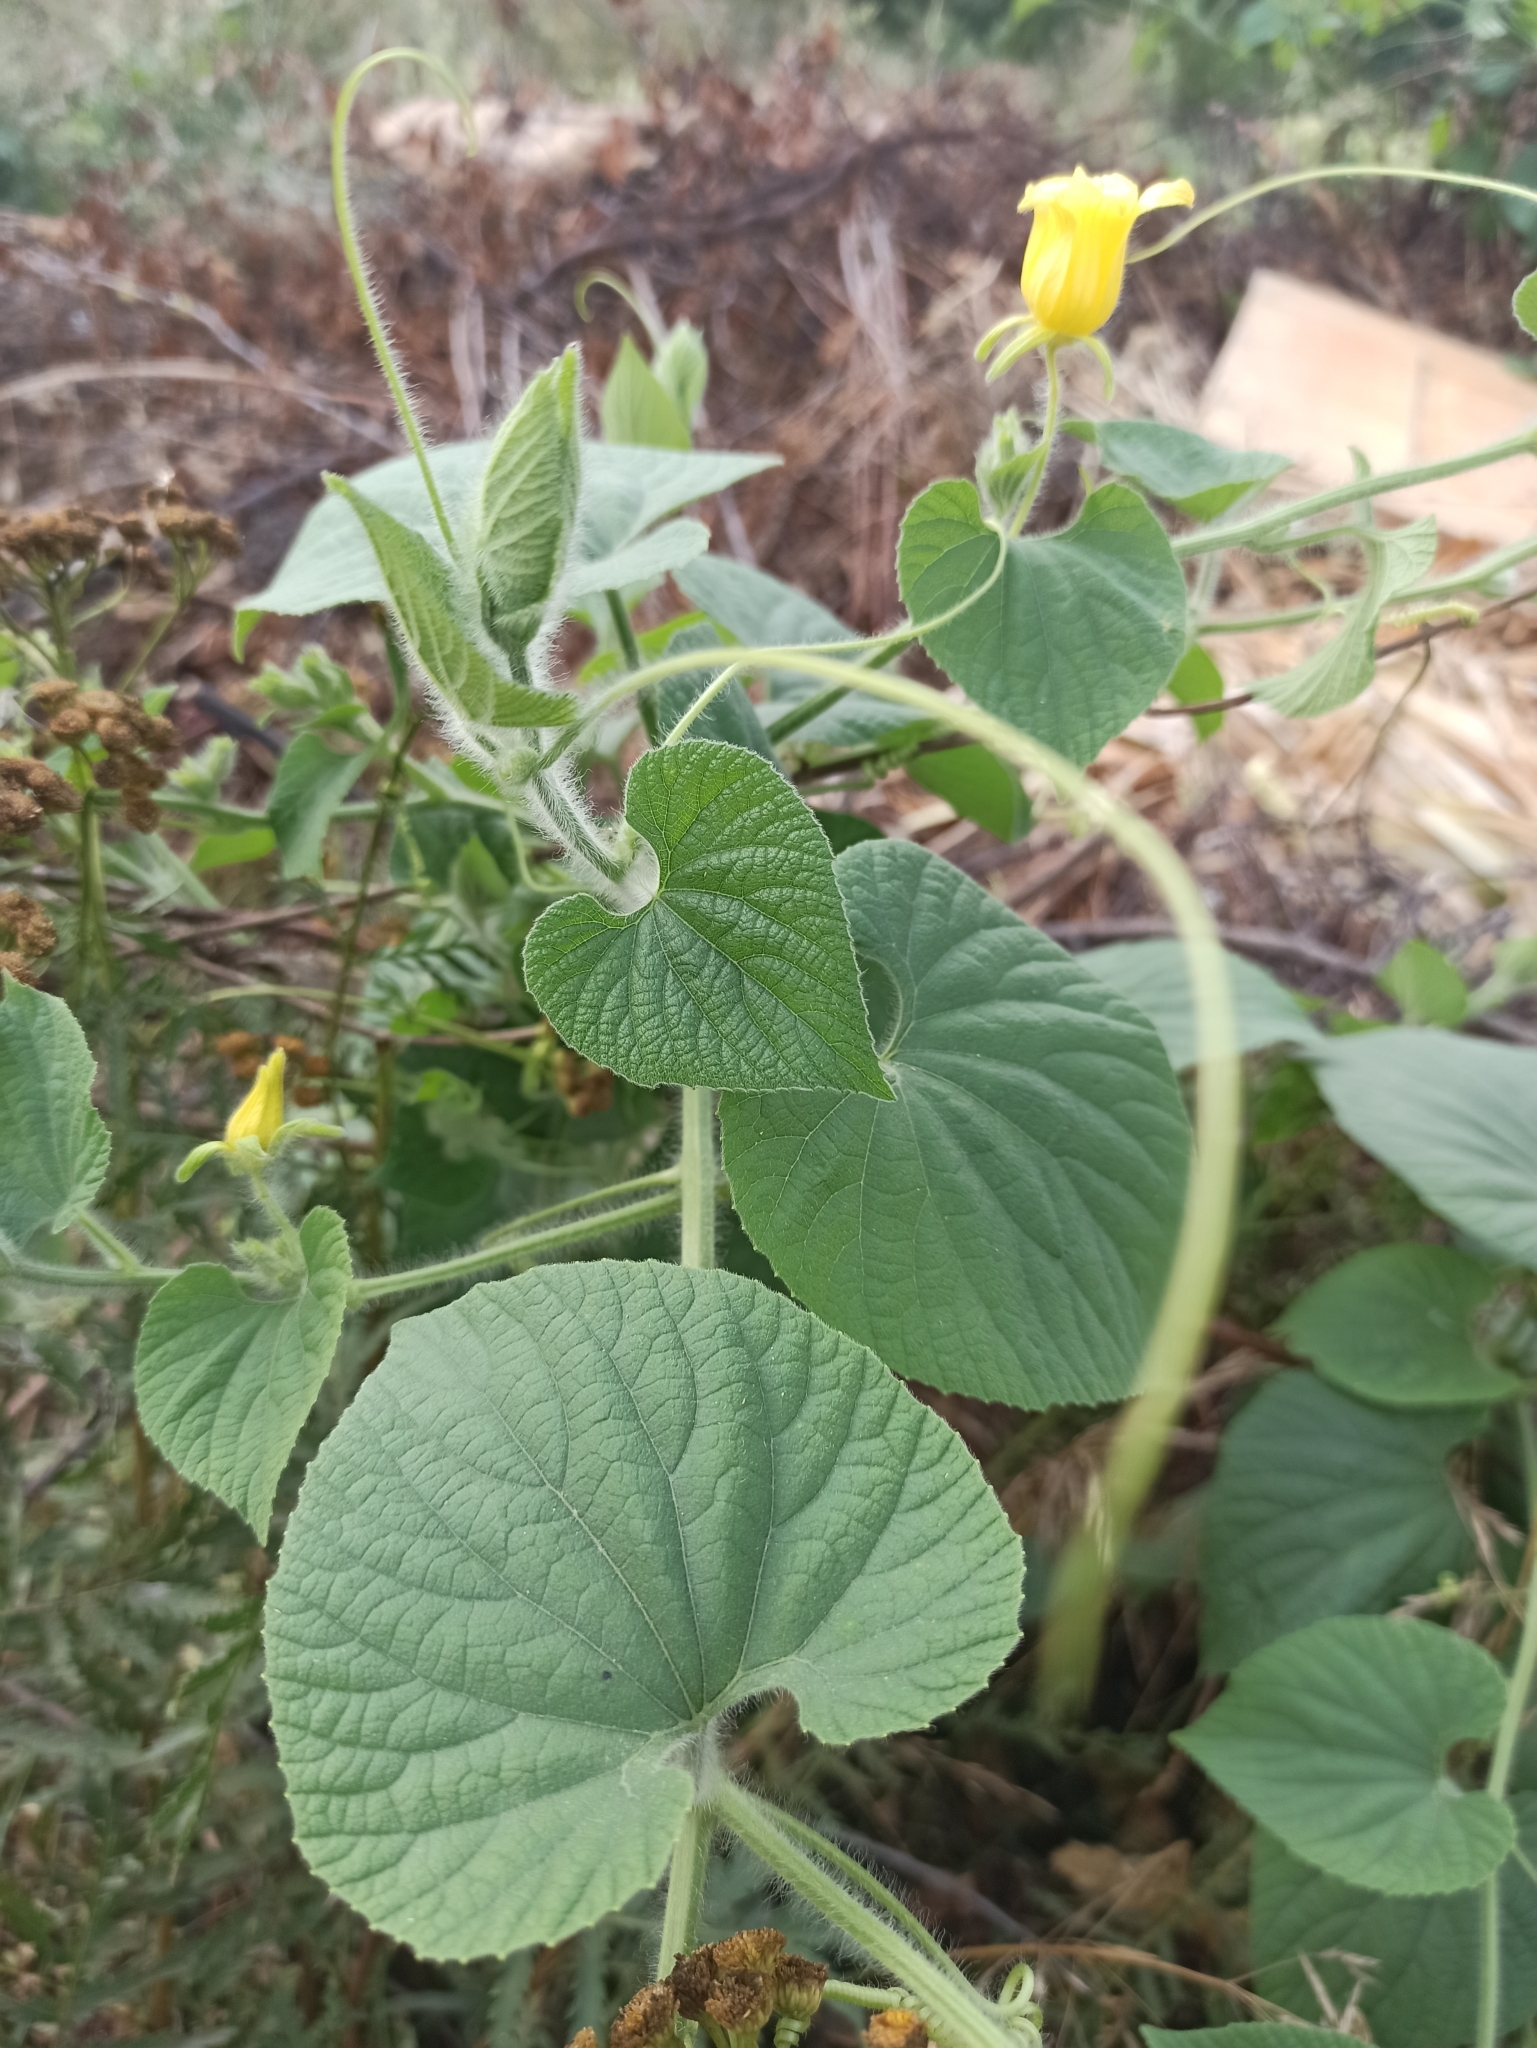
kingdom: Plantae
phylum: Tracheophyta
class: Magnoliopsida
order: Cucurbitales
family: Cucurbitaceae
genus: Thladiantha
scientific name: Thladiantha dubia
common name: Manchu tubergourd
